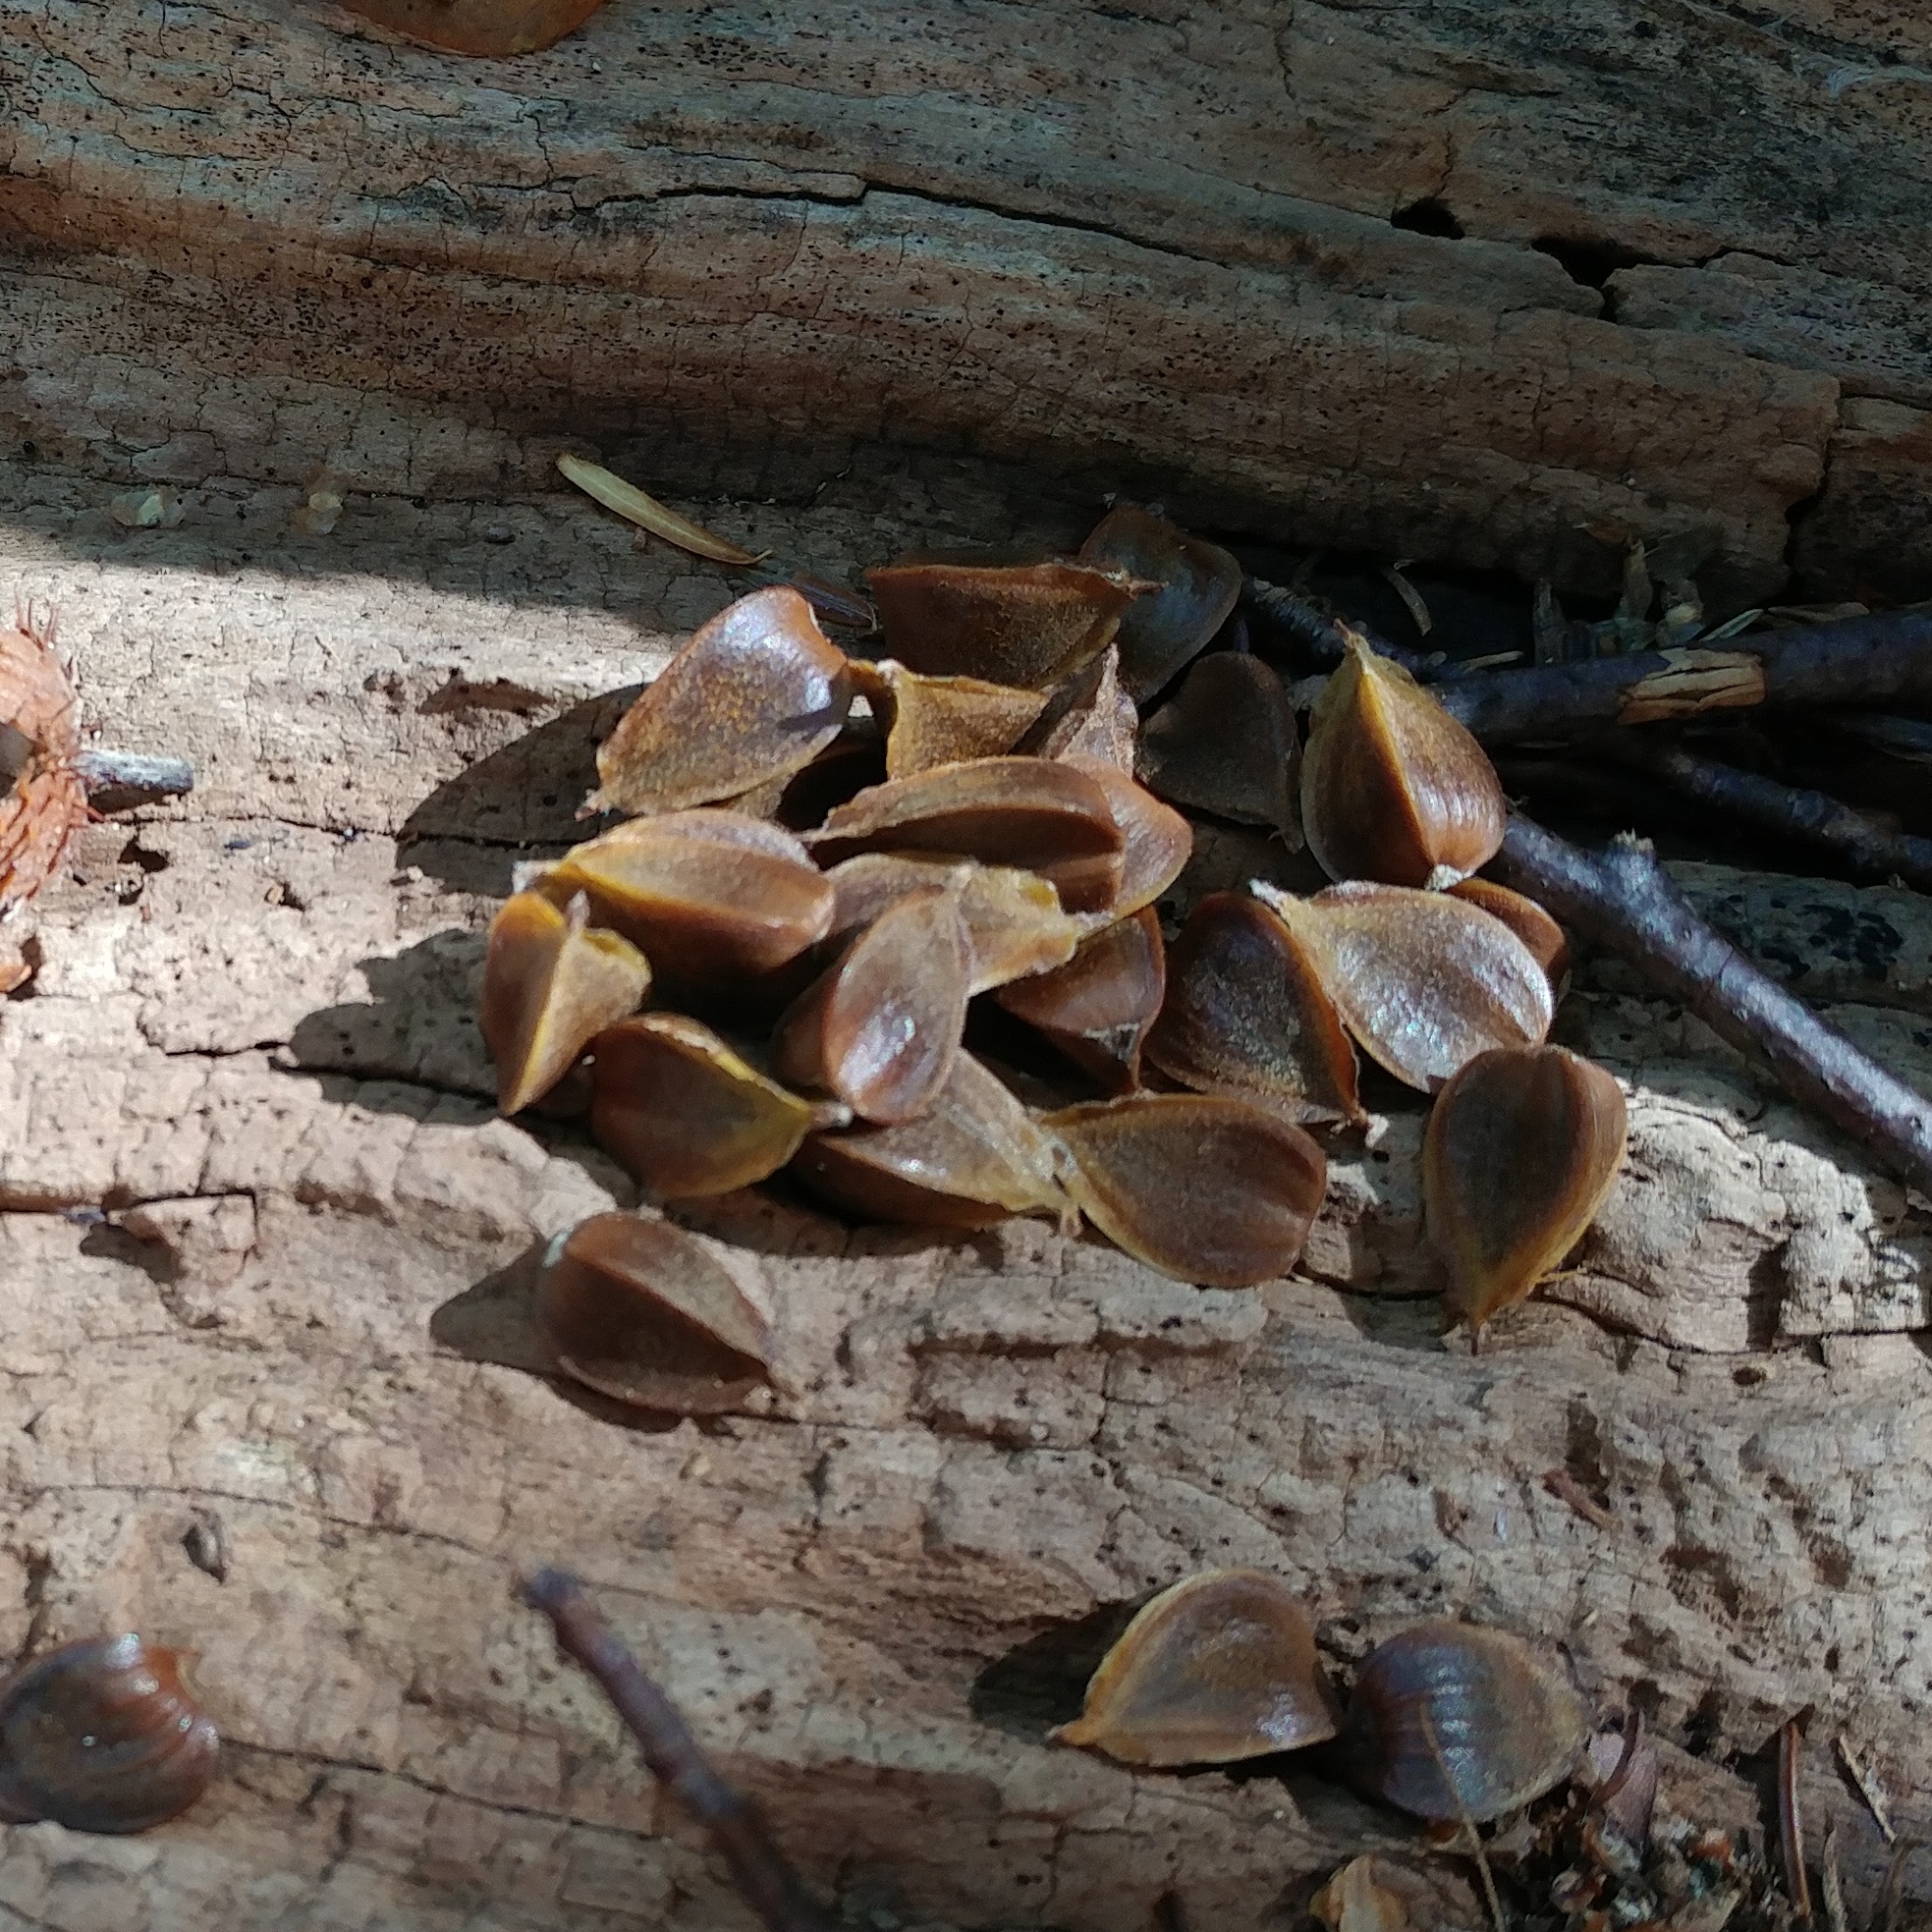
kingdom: Plantae
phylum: Tracheophyta
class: Magnoliopsida
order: Fagales
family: Fagaceae
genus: Fagus
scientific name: Fagus grandifolia
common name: American beech
